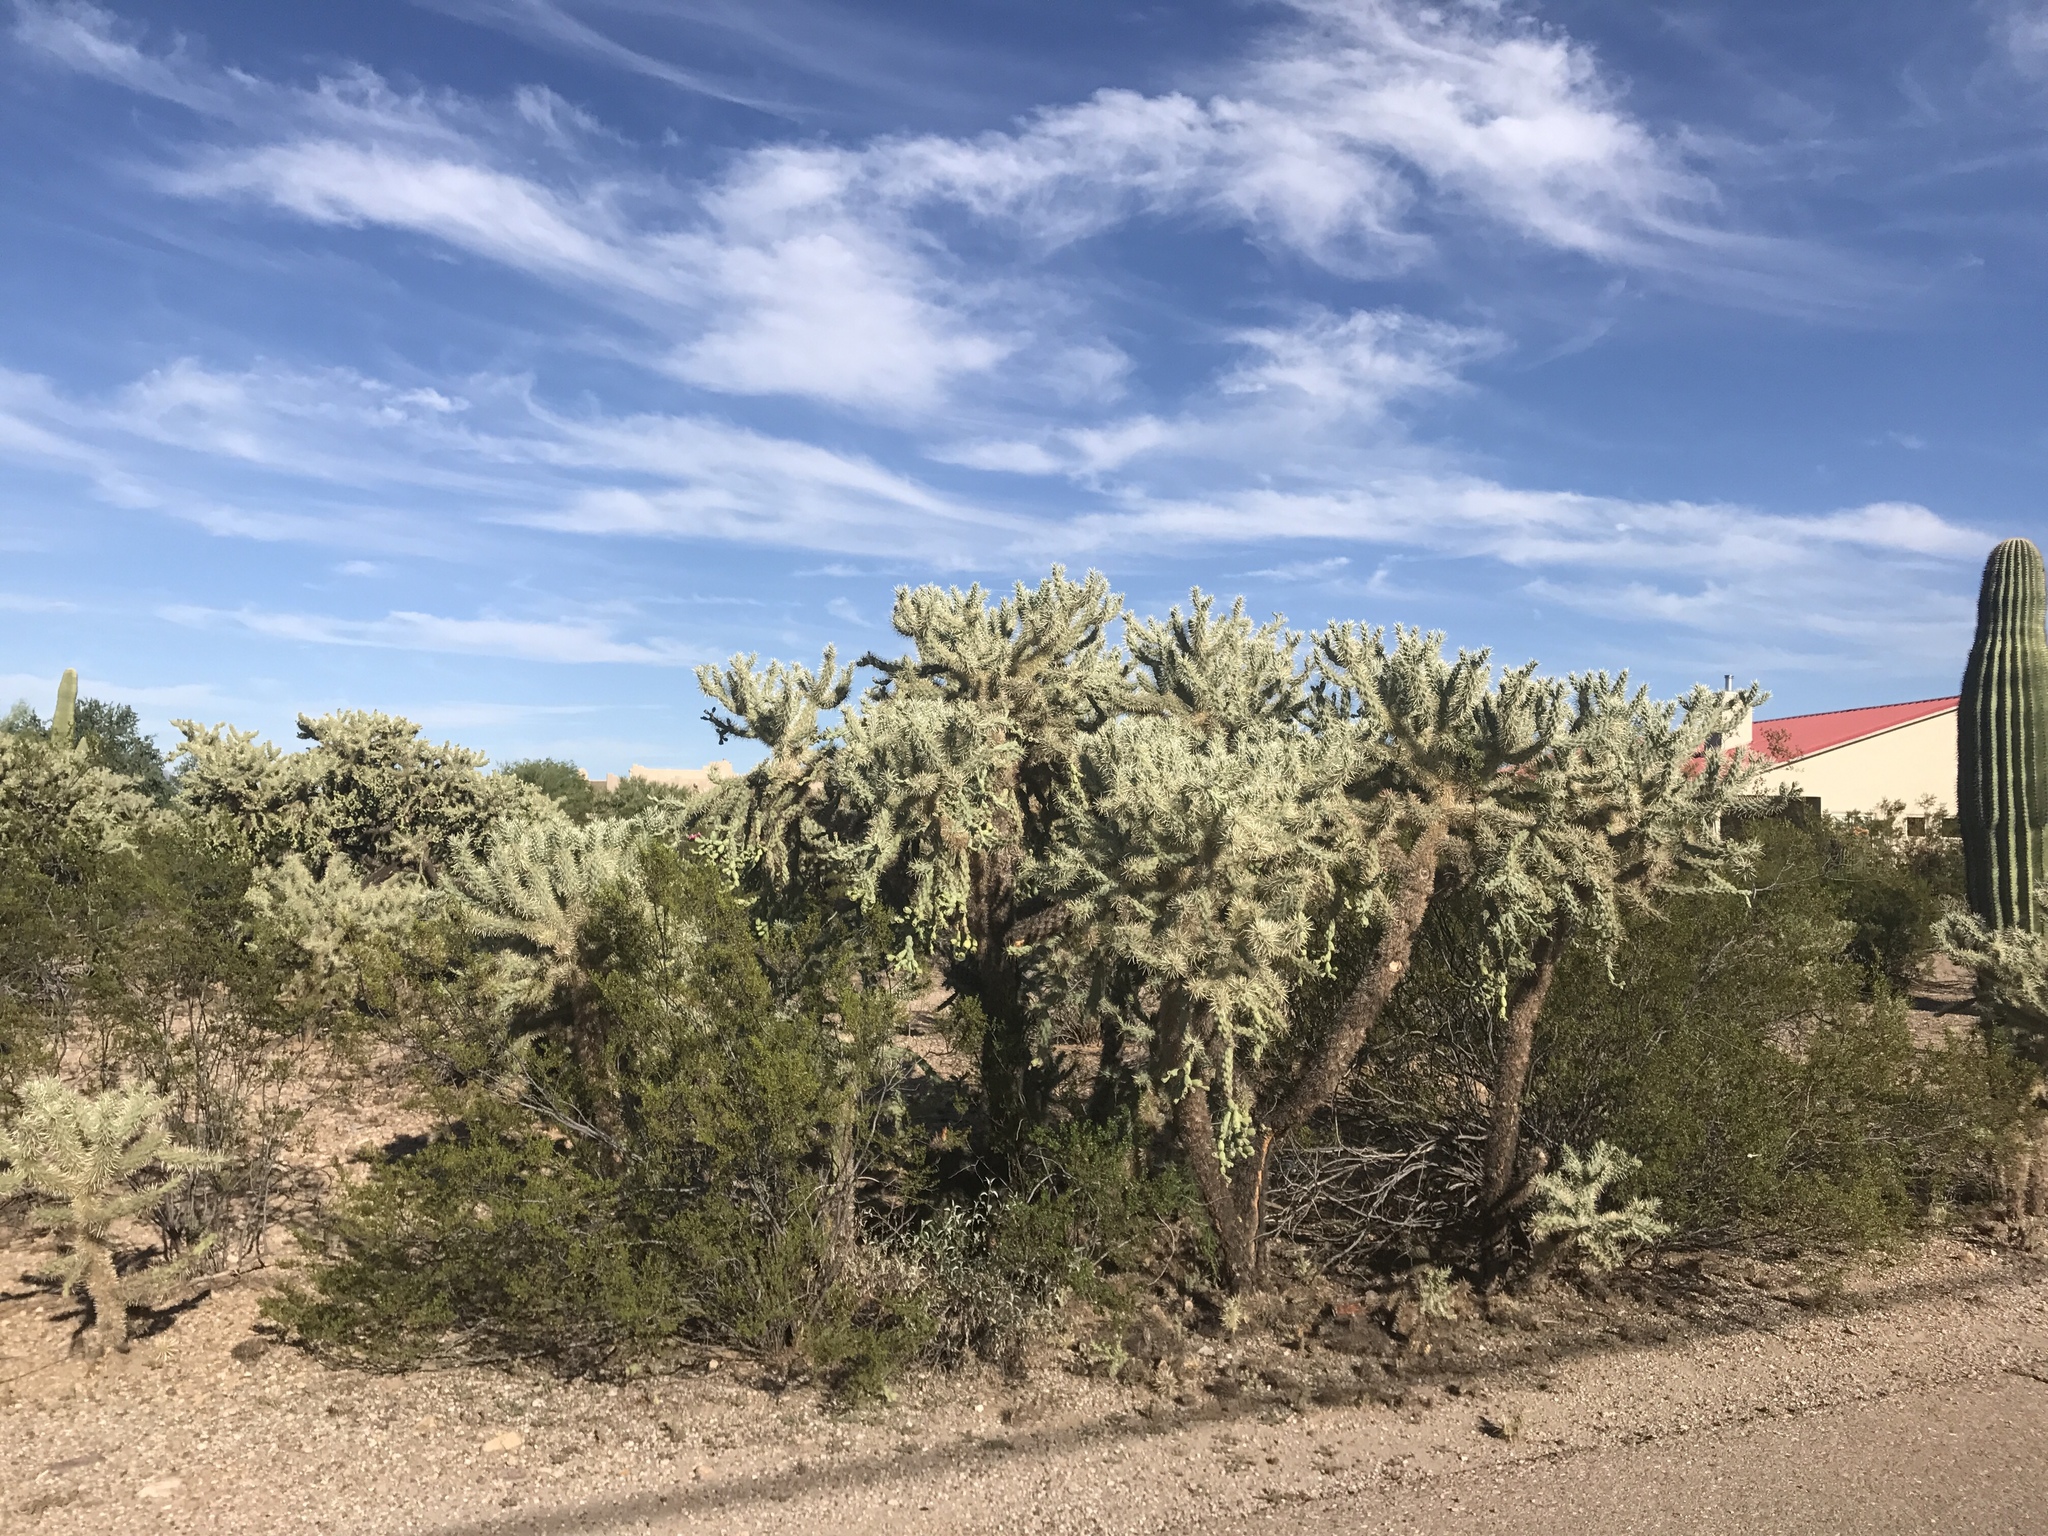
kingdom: Plantae
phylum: Tracheophyta
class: Magnoliopsida
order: Caryophyllales
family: Cactaceae
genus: Cylindropuntia
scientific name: Cylindropuntia fulgida
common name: Jumping cholla
